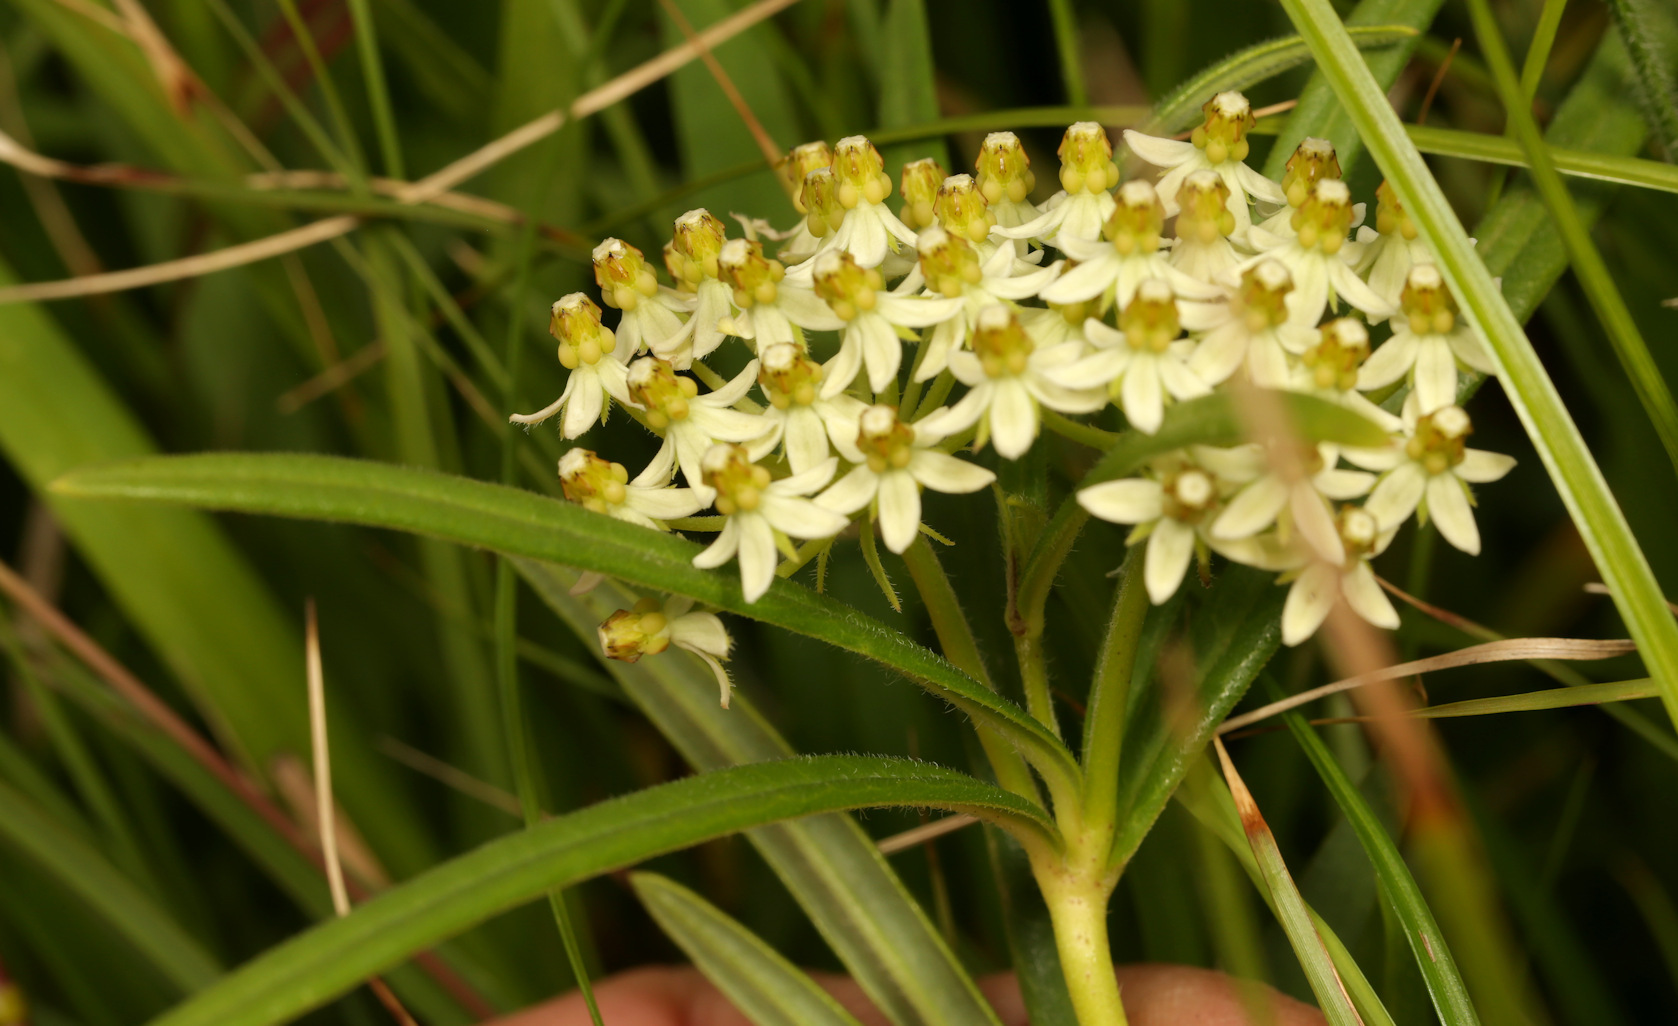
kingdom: Plantae
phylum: Tracheophyta
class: Magnoliopsida
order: Gentianales
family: Apocynaceae
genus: Xysmalobium
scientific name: Xysmalobium involucratum
